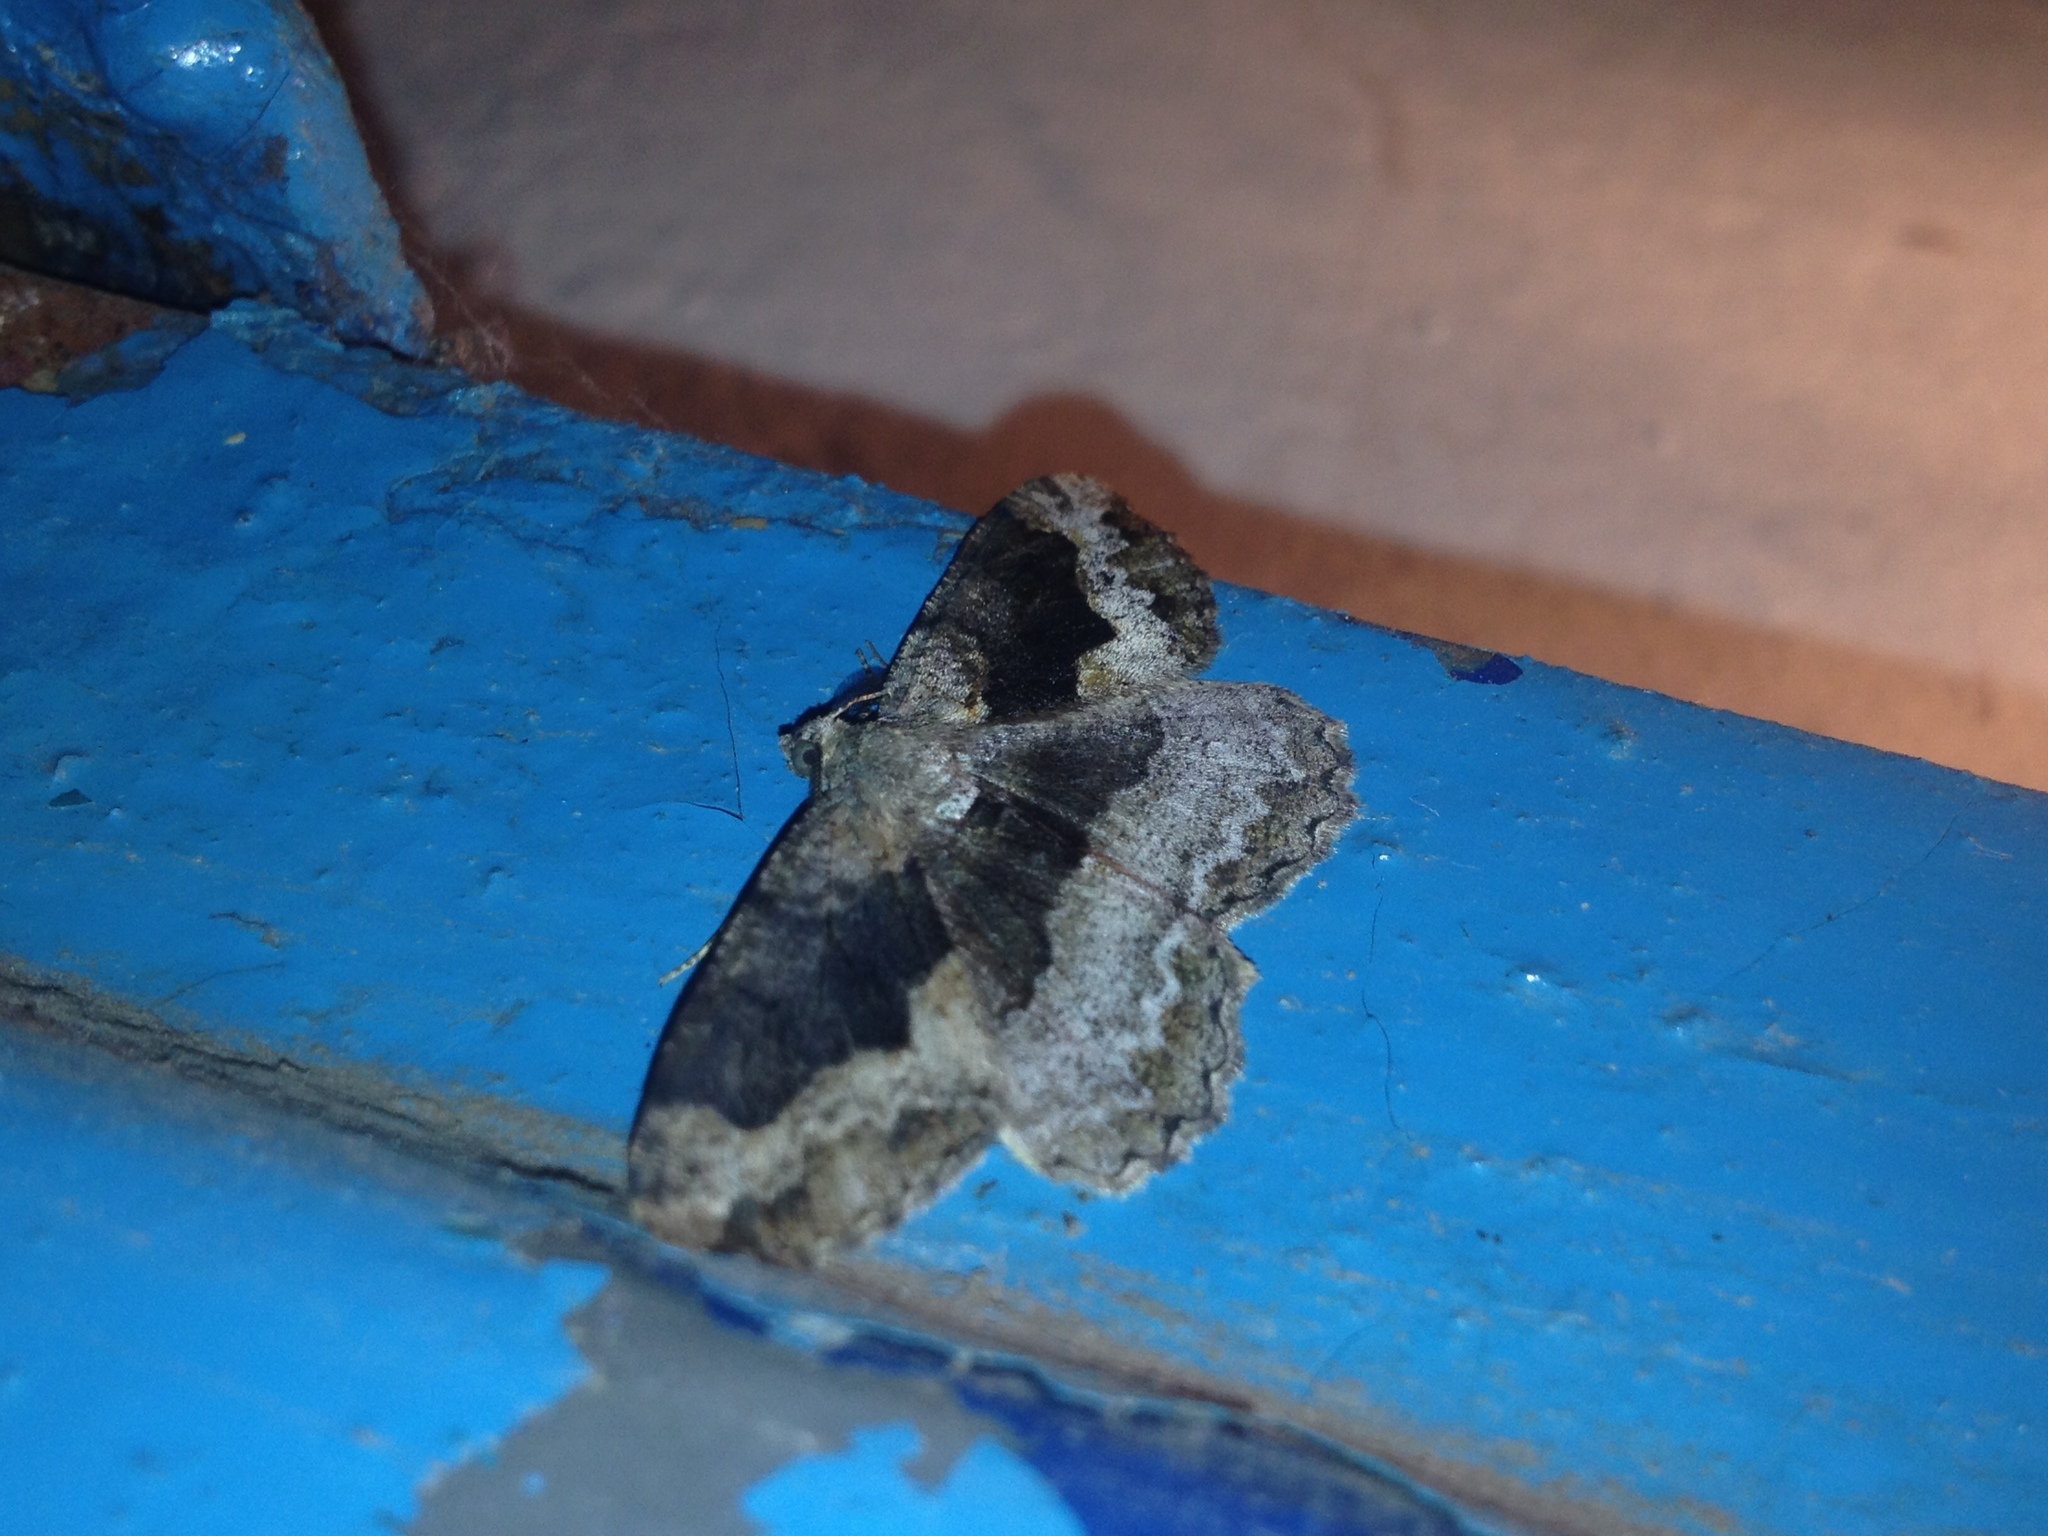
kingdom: Animalia
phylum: Arthropoda
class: Insecta
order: Lepidoptera
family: Geometridae
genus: Alcis
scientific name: Alcis repandata
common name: Mottled beauty
